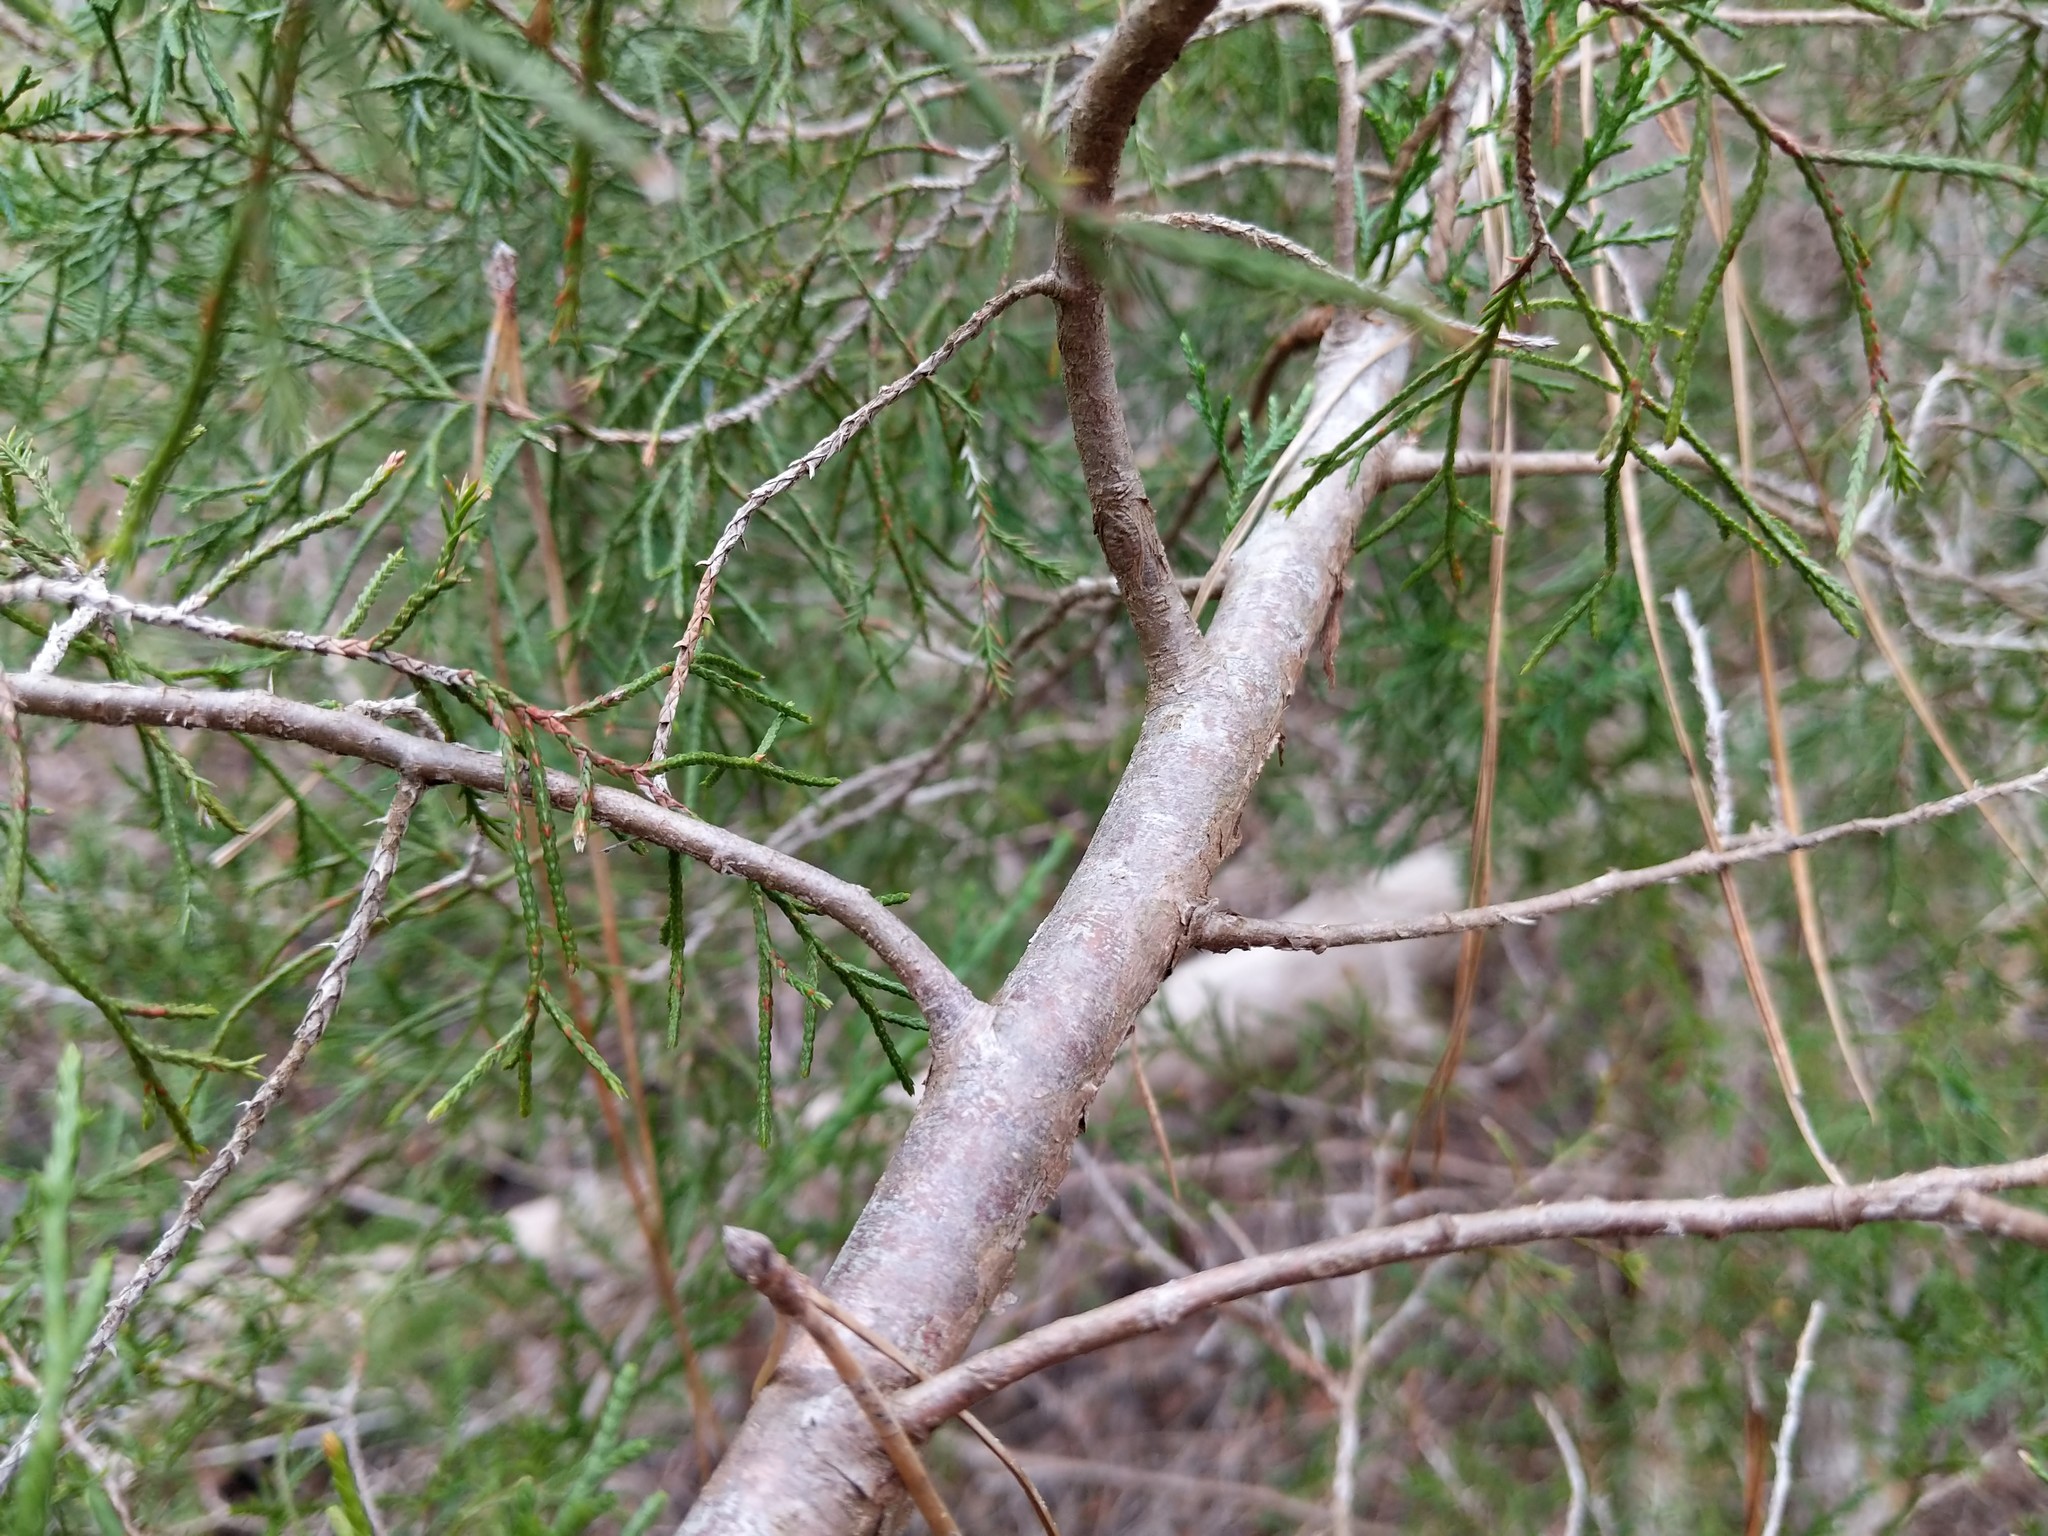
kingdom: Plantae
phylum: Tracheophyta
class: Pinopsida
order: Pinales
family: Cupressaceae
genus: Juniperus
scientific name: Juniperus virginiana
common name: Red juniper
